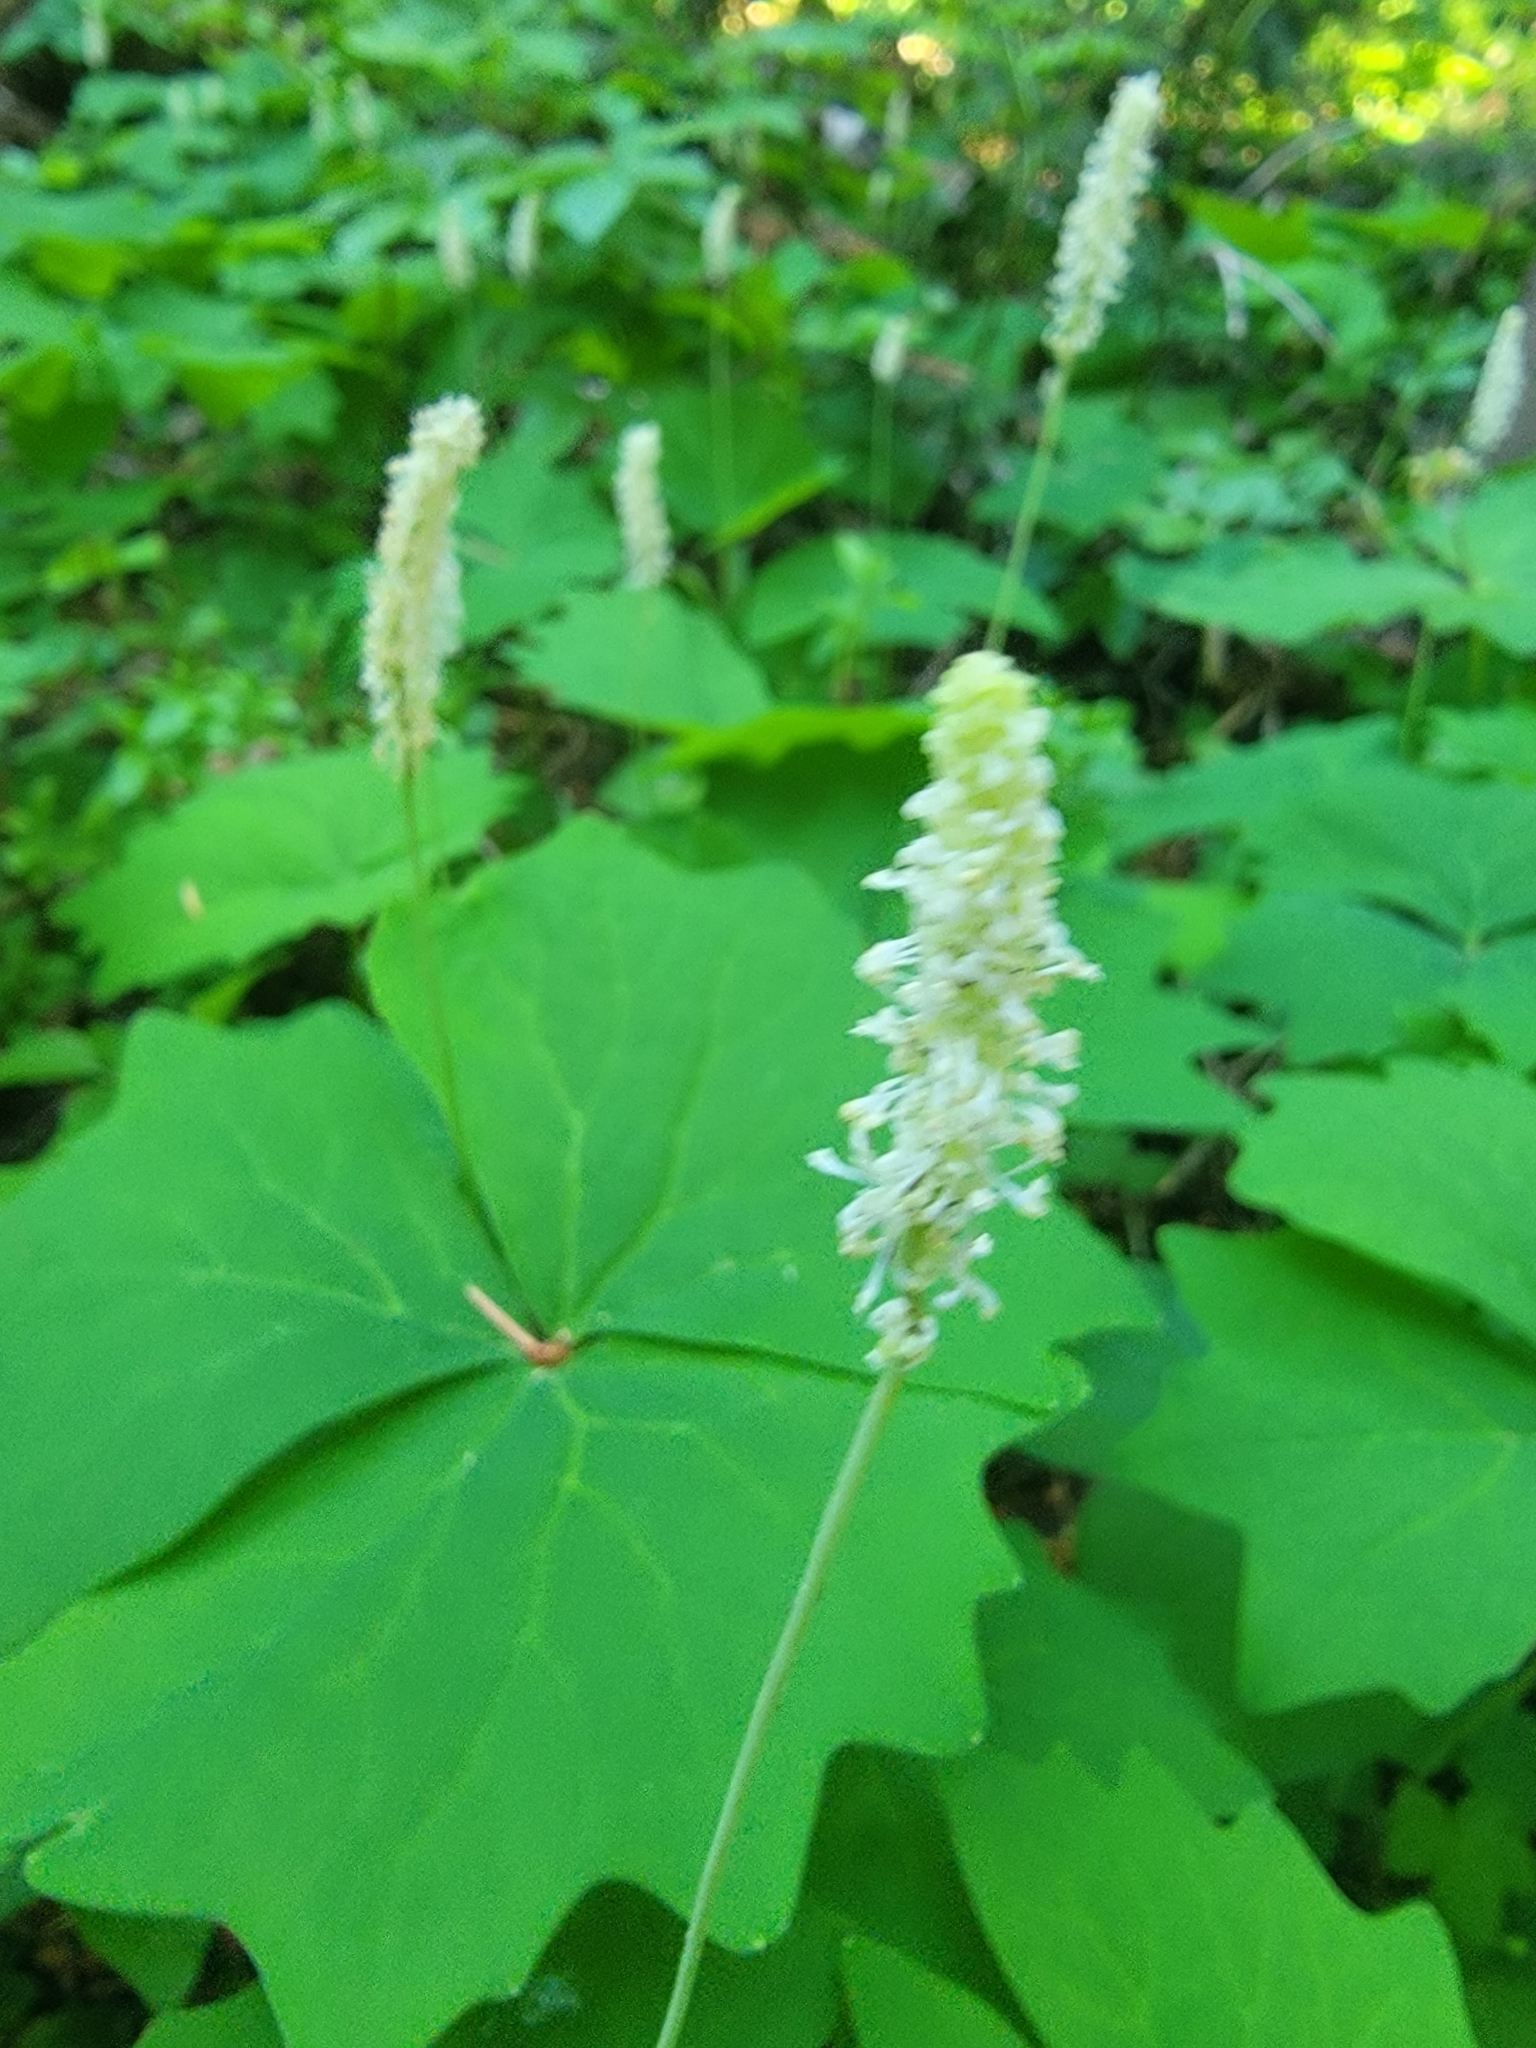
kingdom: Plantae
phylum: Tracheophyta
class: Magnoliopsida
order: Ranunculales
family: Berberidaceae
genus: Achlys
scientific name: Achlys triphylla
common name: Vanilla-leaf
